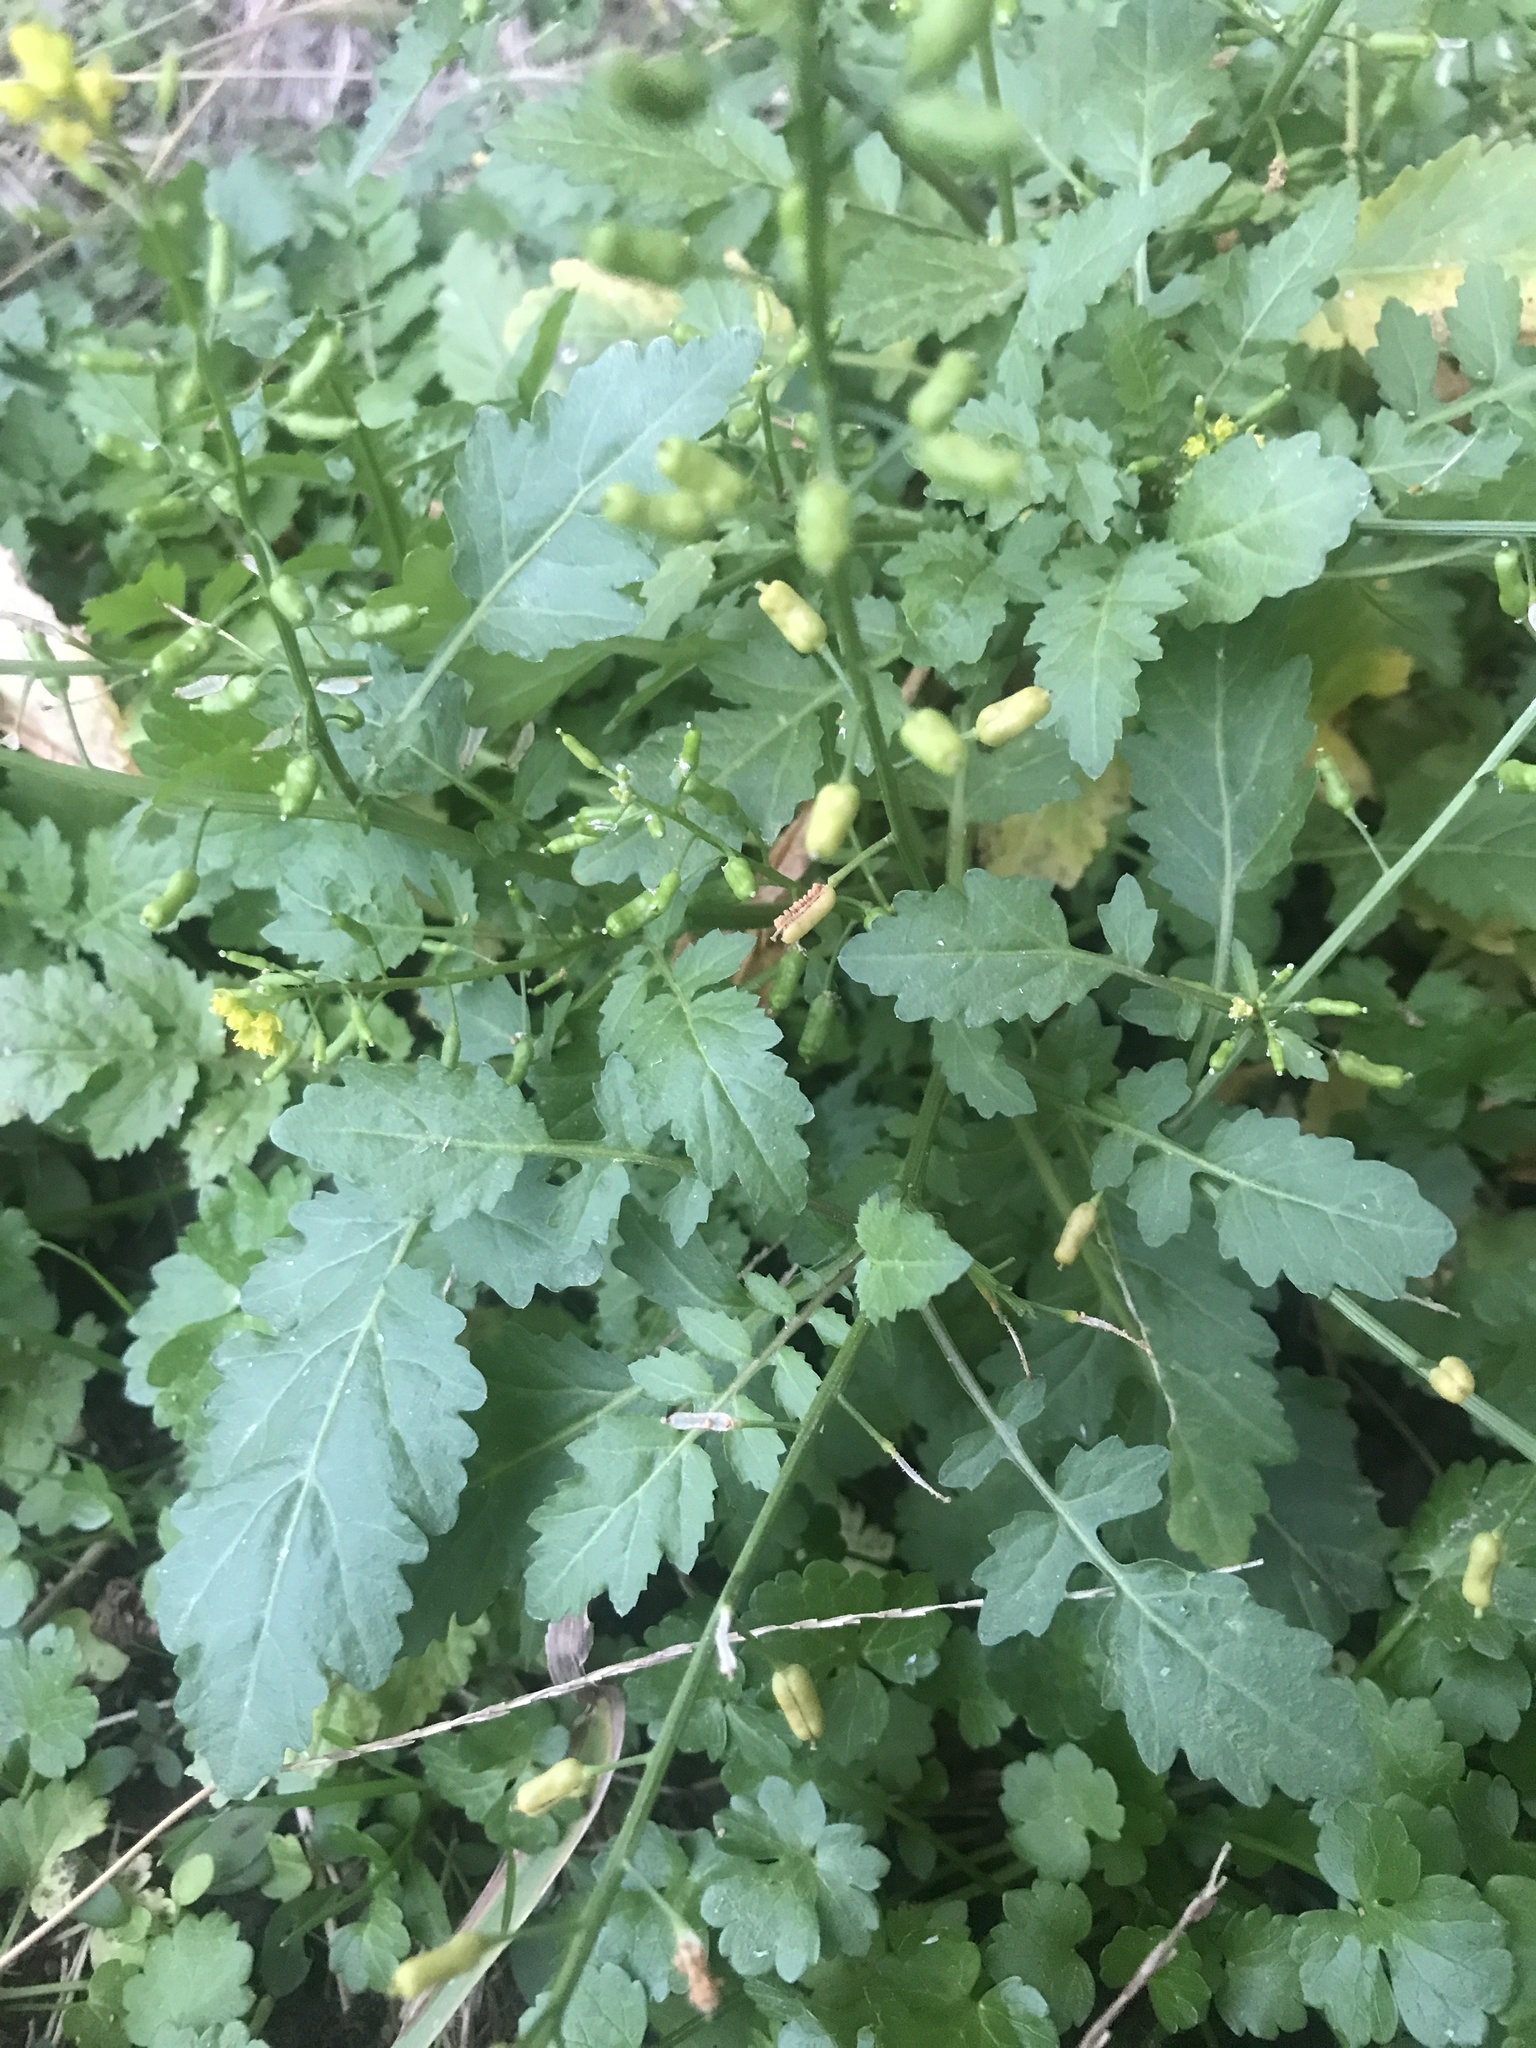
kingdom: Plantae
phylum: Tracheophyta
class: Magnoliopsida
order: Brassicales
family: Brassicaceae
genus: Rorippa
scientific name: Rorippa palustris
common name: Marsh yellow-cress
